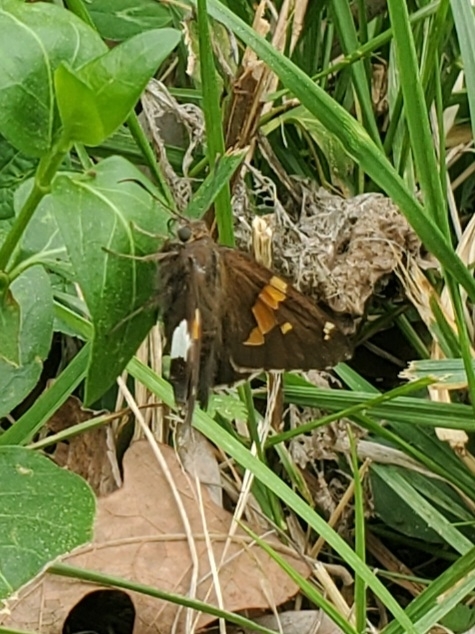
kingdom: Animalia
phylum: Arthropoda
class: Insecta
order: Lepidoptera
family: Hesperiidae
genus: Epargyreus
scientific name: Epargyreus clarus
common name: Silver-spotted skipper
